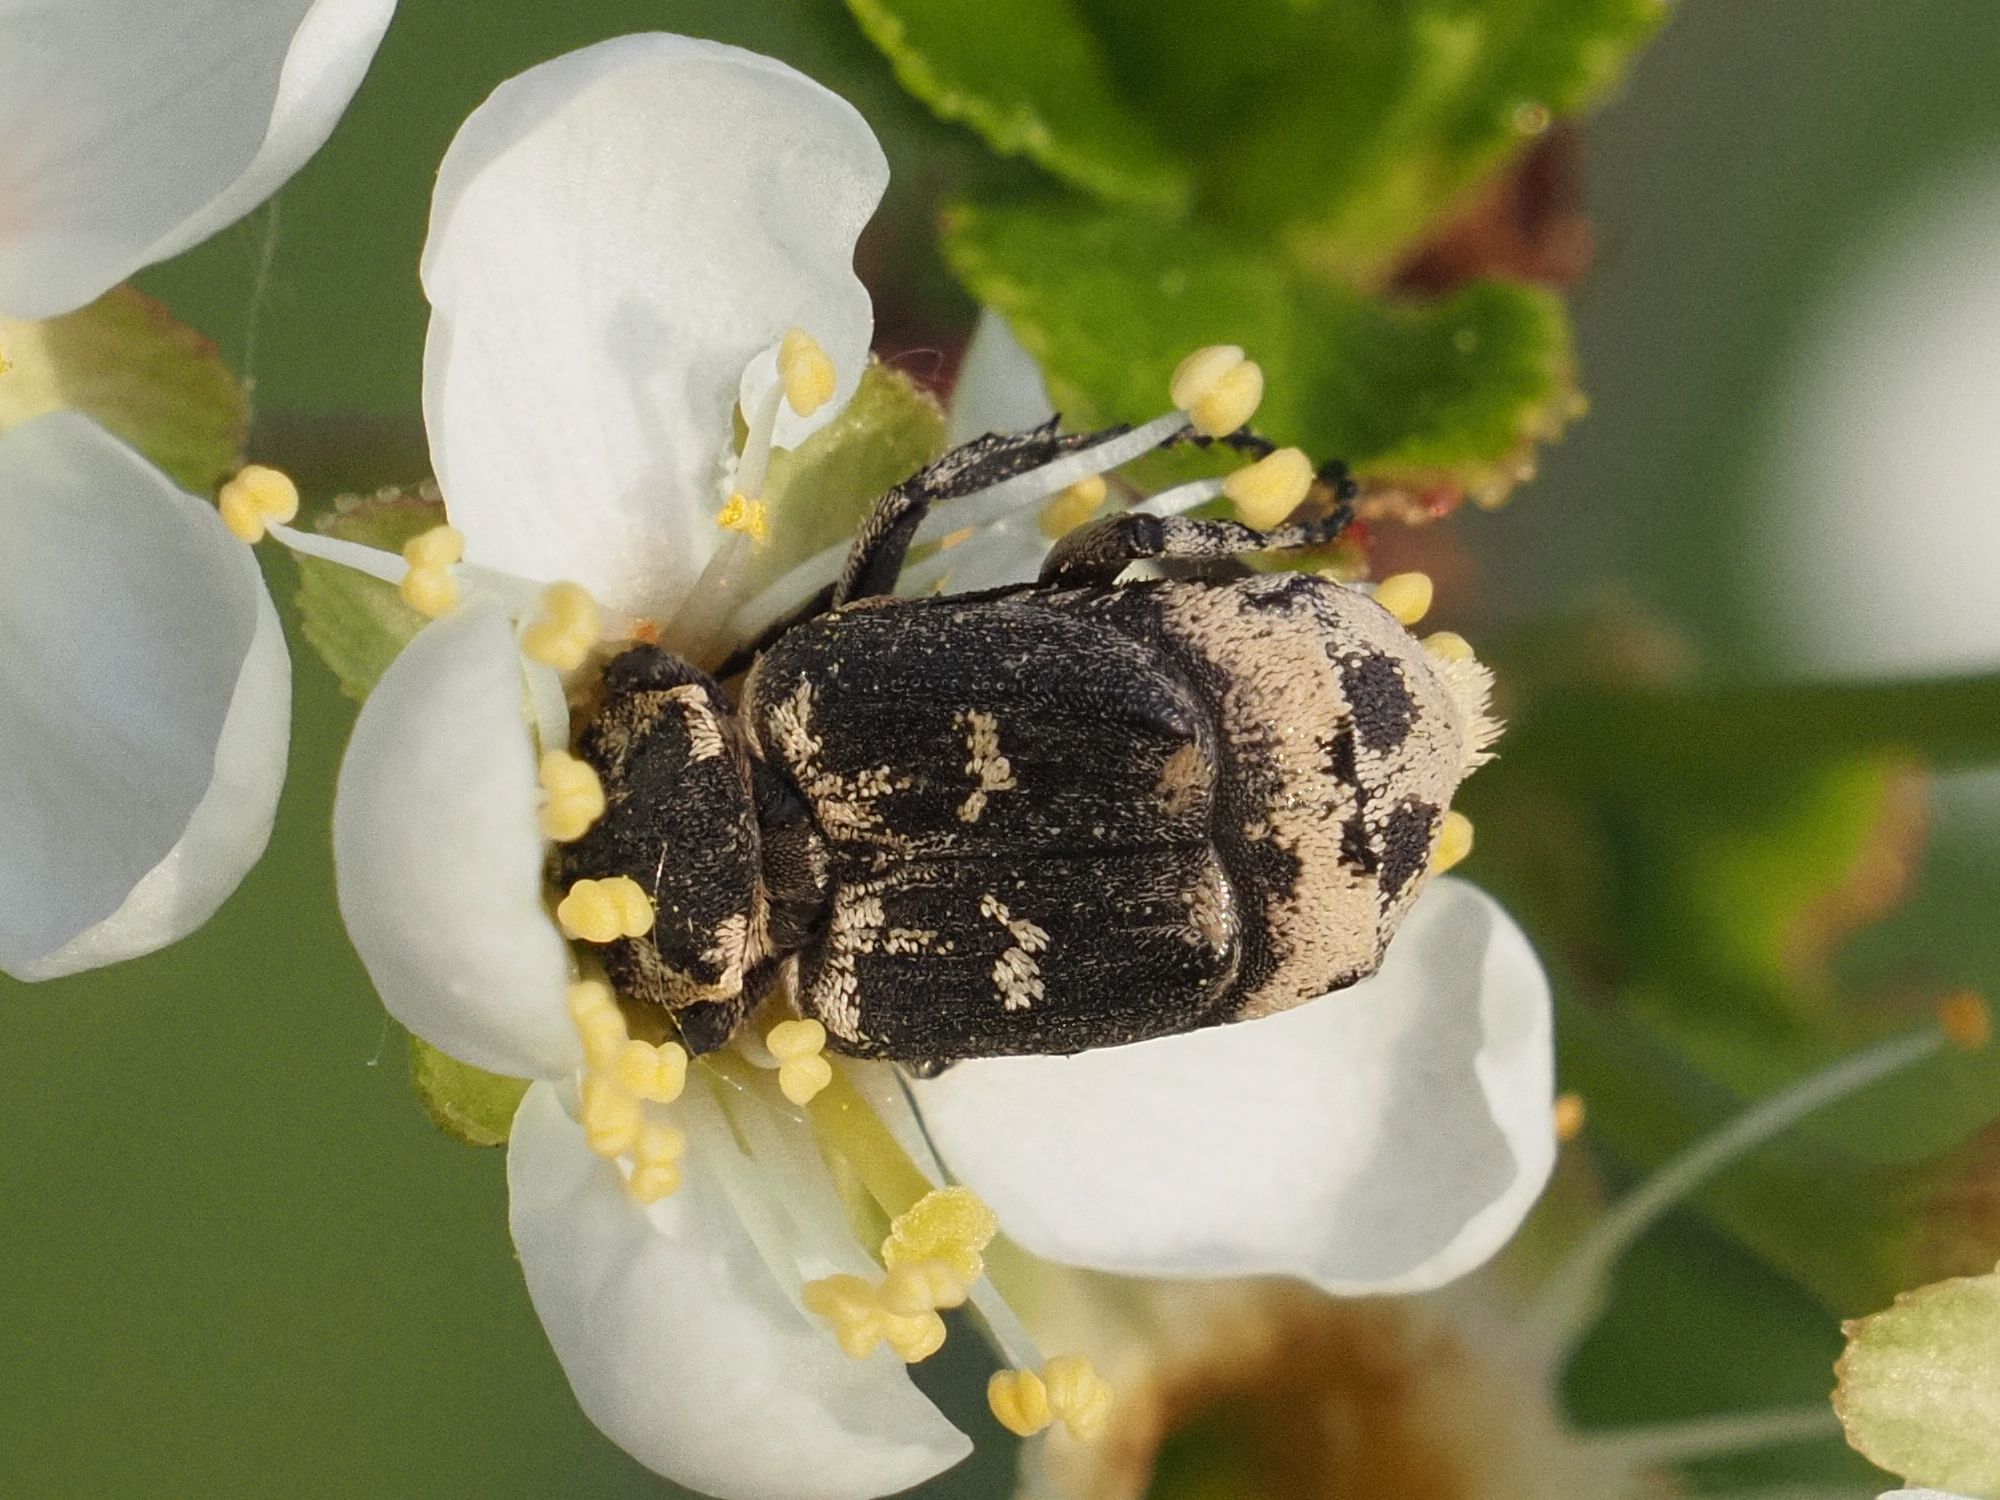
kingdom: Animalia
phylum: Arthropoda
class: Insecta
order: Coleoptera
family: Scarabaeidae
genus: Valgus
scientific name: Valgus hemipterus
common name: Bug flower chafer
